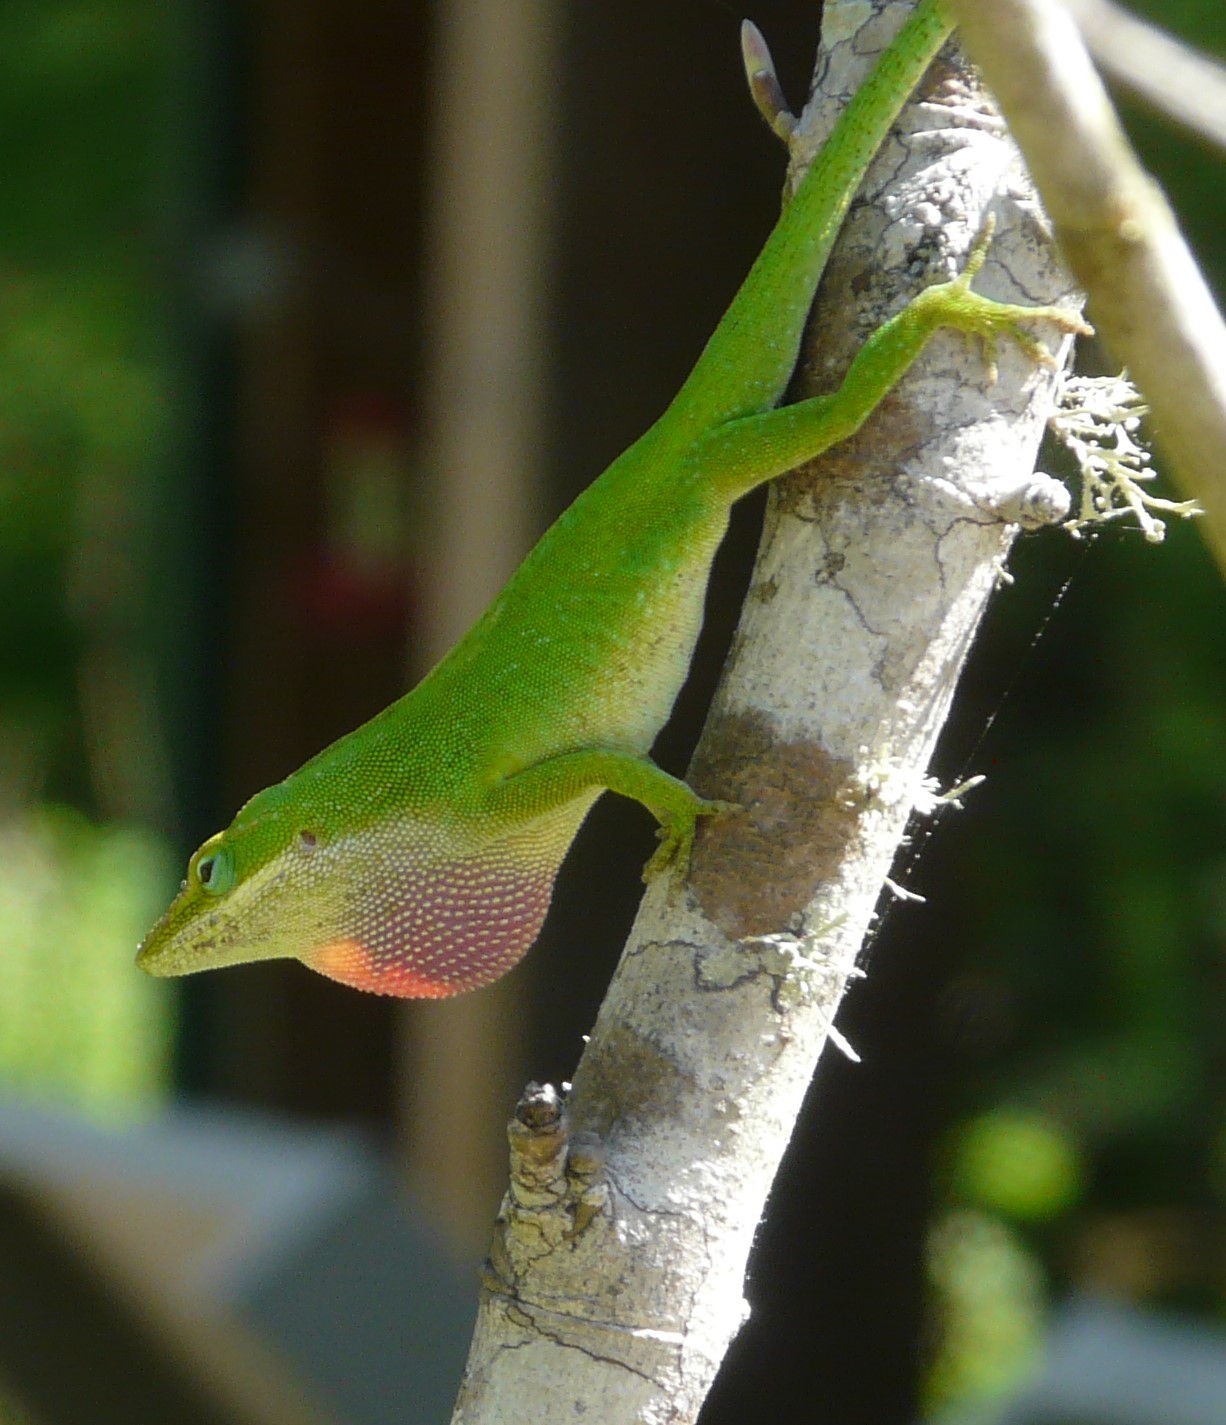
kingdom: Animalia
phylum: Chordata
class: Squamata
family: Dactyloidae
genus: Anolis
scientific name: Anolis carolinensis
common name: Green anole
